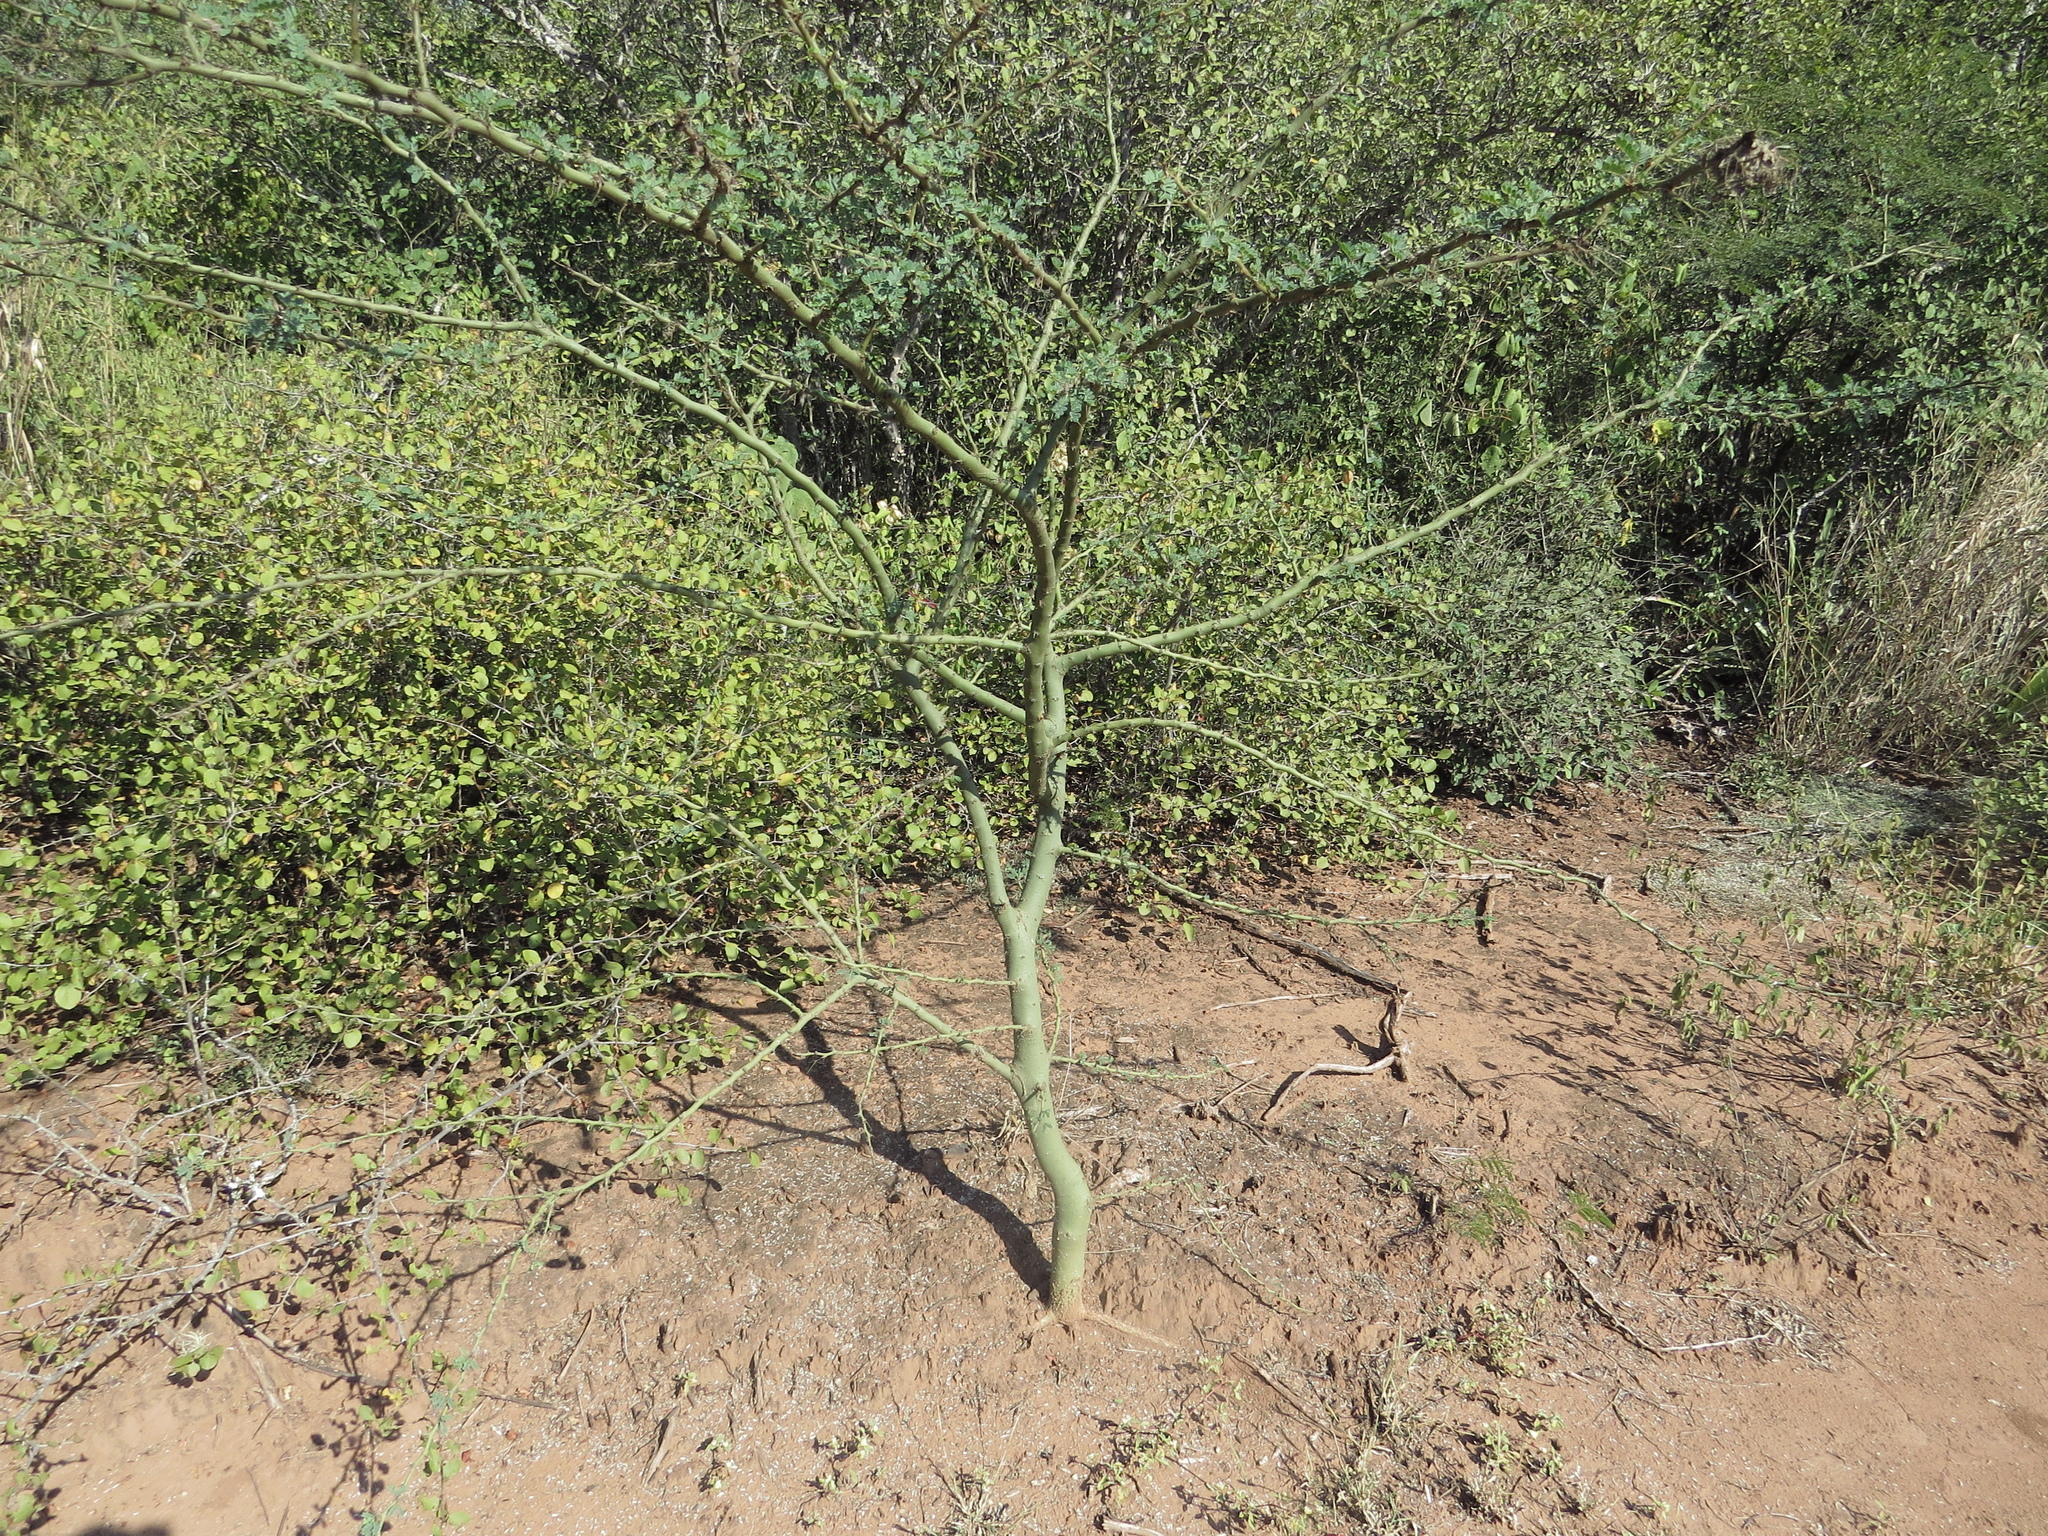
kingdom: Plantae
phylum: Tracheophyta
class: Magnoliopsida
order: Fabales
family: Fabaceae
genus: Parkinsonia
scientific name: Parkinsonia praecox
